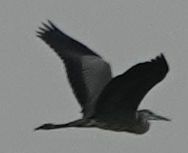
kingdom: Animalia
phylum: Chordata
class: Aves
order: Pelecaniformes
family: Ardeidae
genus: Ardea
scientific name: Ardea cinerea
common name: Grey heron
